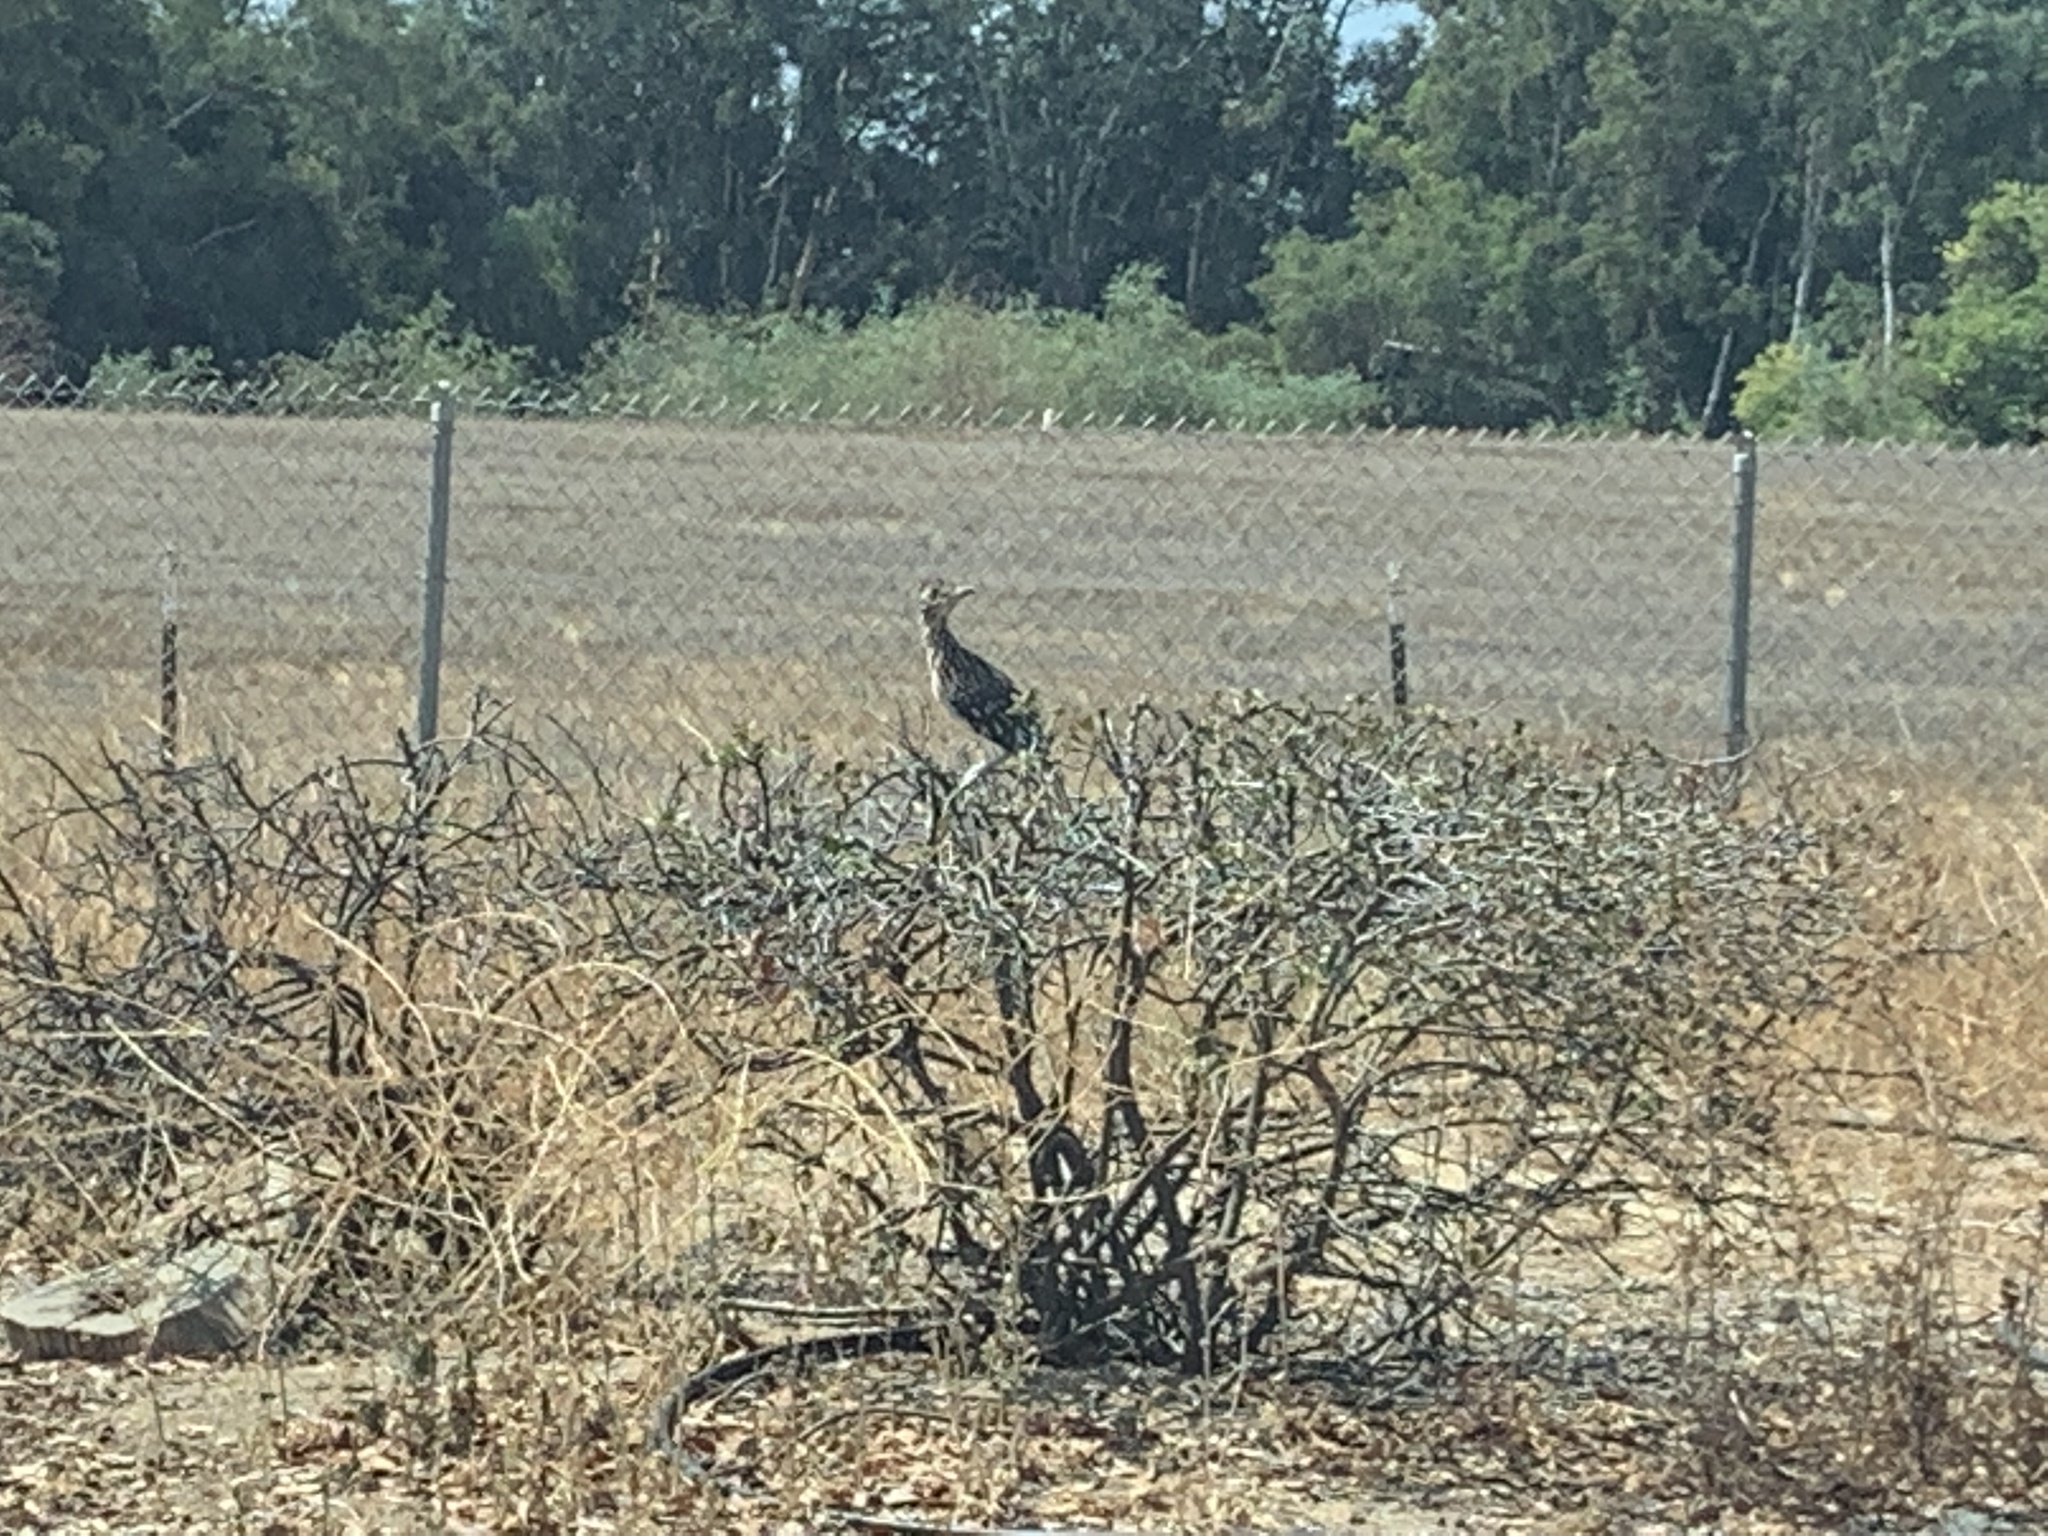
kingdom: Animalia
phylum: Chordata
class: Aves
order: Cuculiformes
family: Cuculidae
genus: Geococcyx
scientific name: Geococcyx californianus
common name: Greater roadrunner
